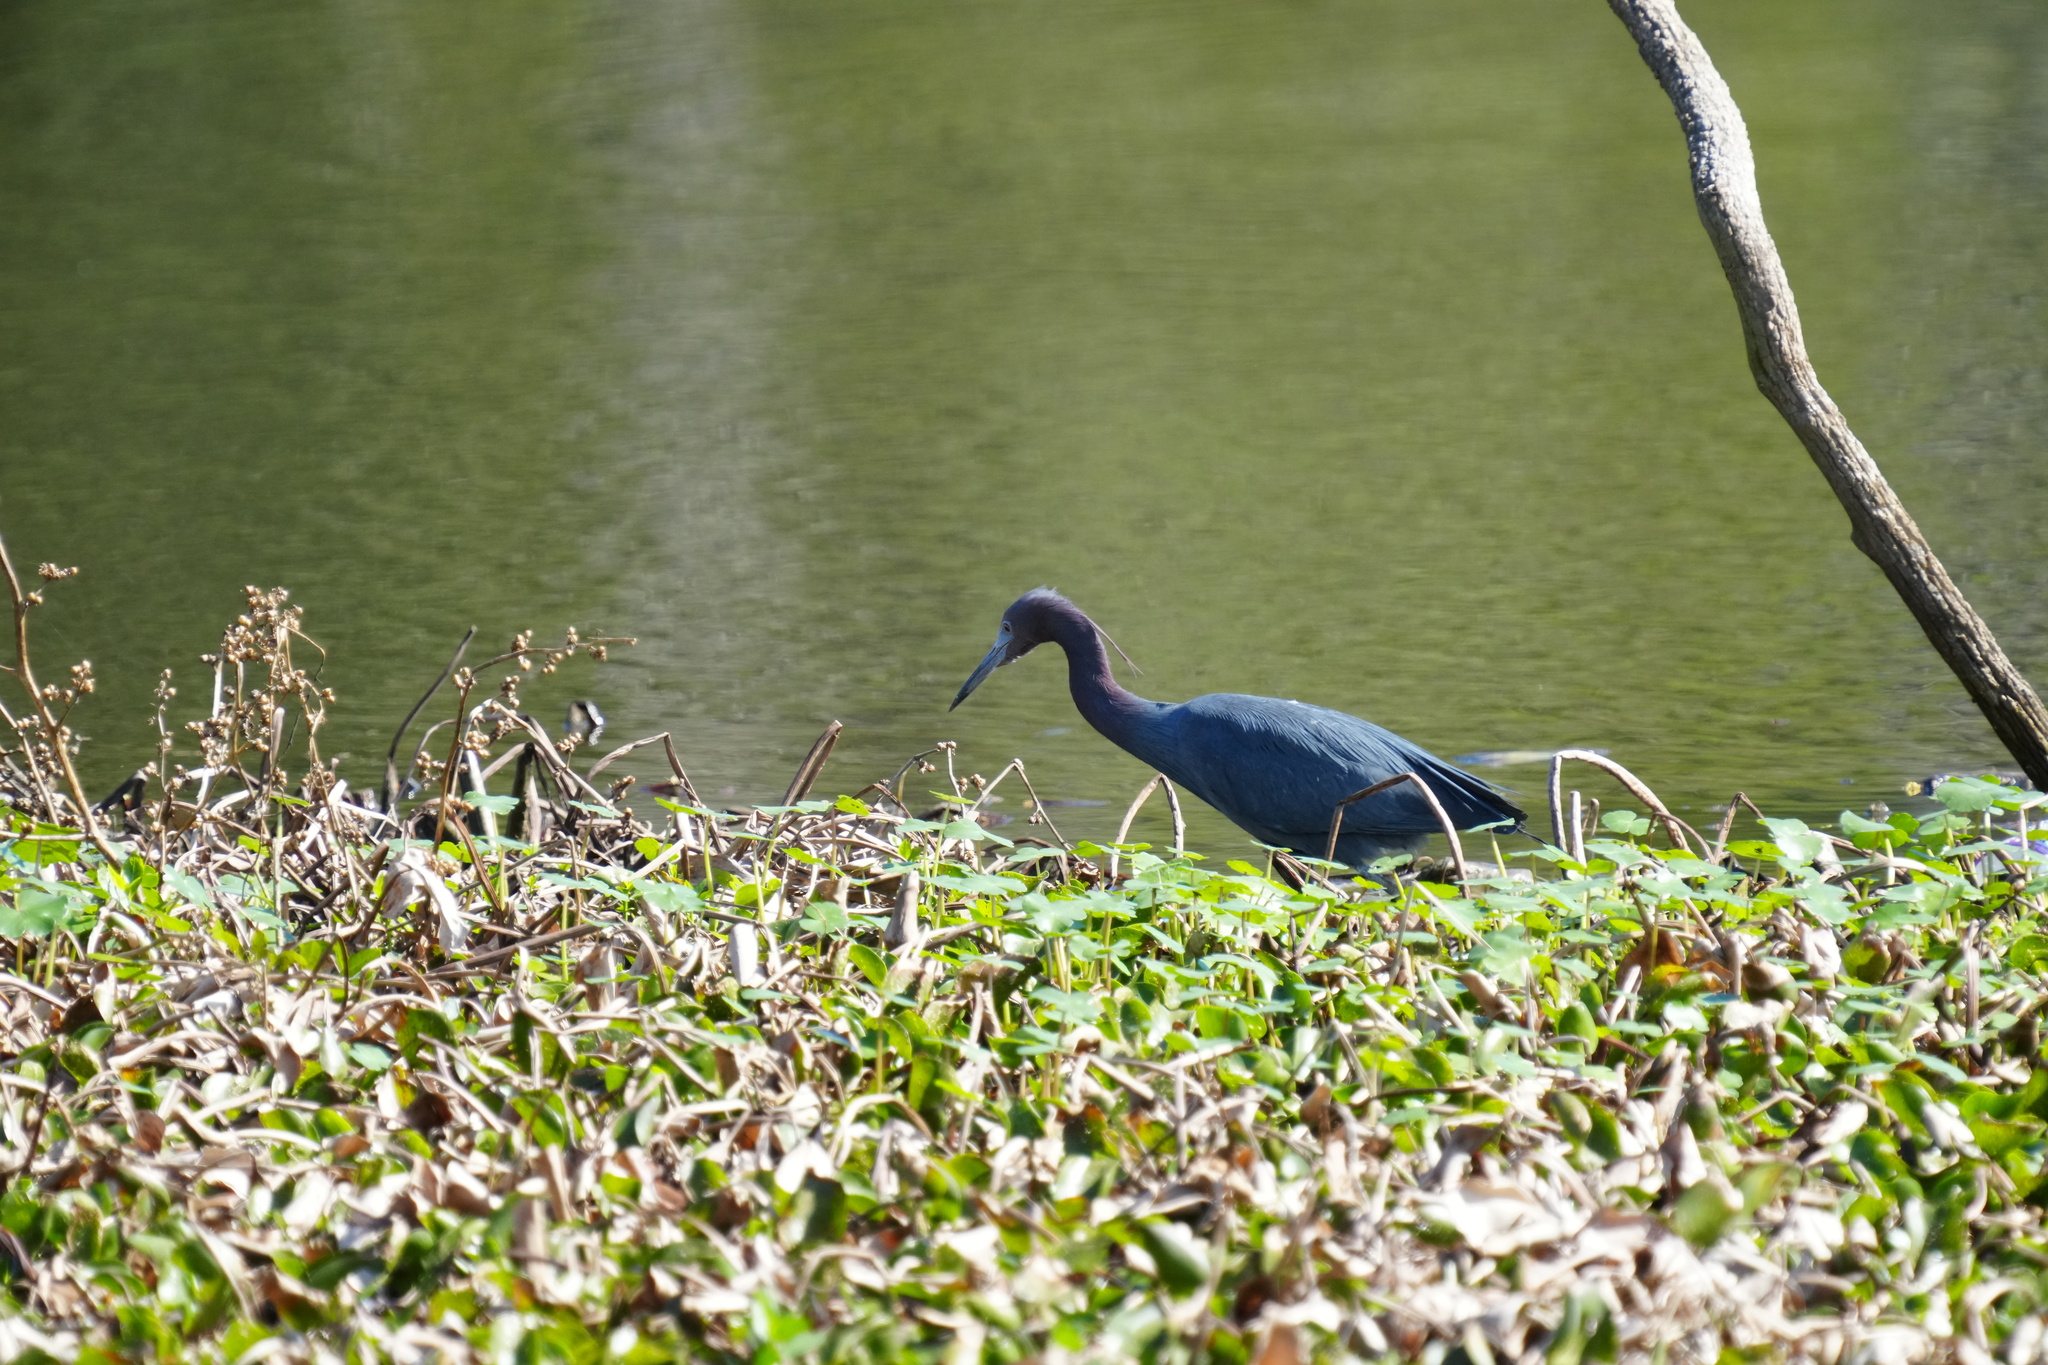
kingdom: Animalia
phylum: Chordata
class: Aves
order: Pelecaniformes
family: Ardeidae
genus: Egretta
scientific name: Egretta caerulea
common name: Little blue heron
